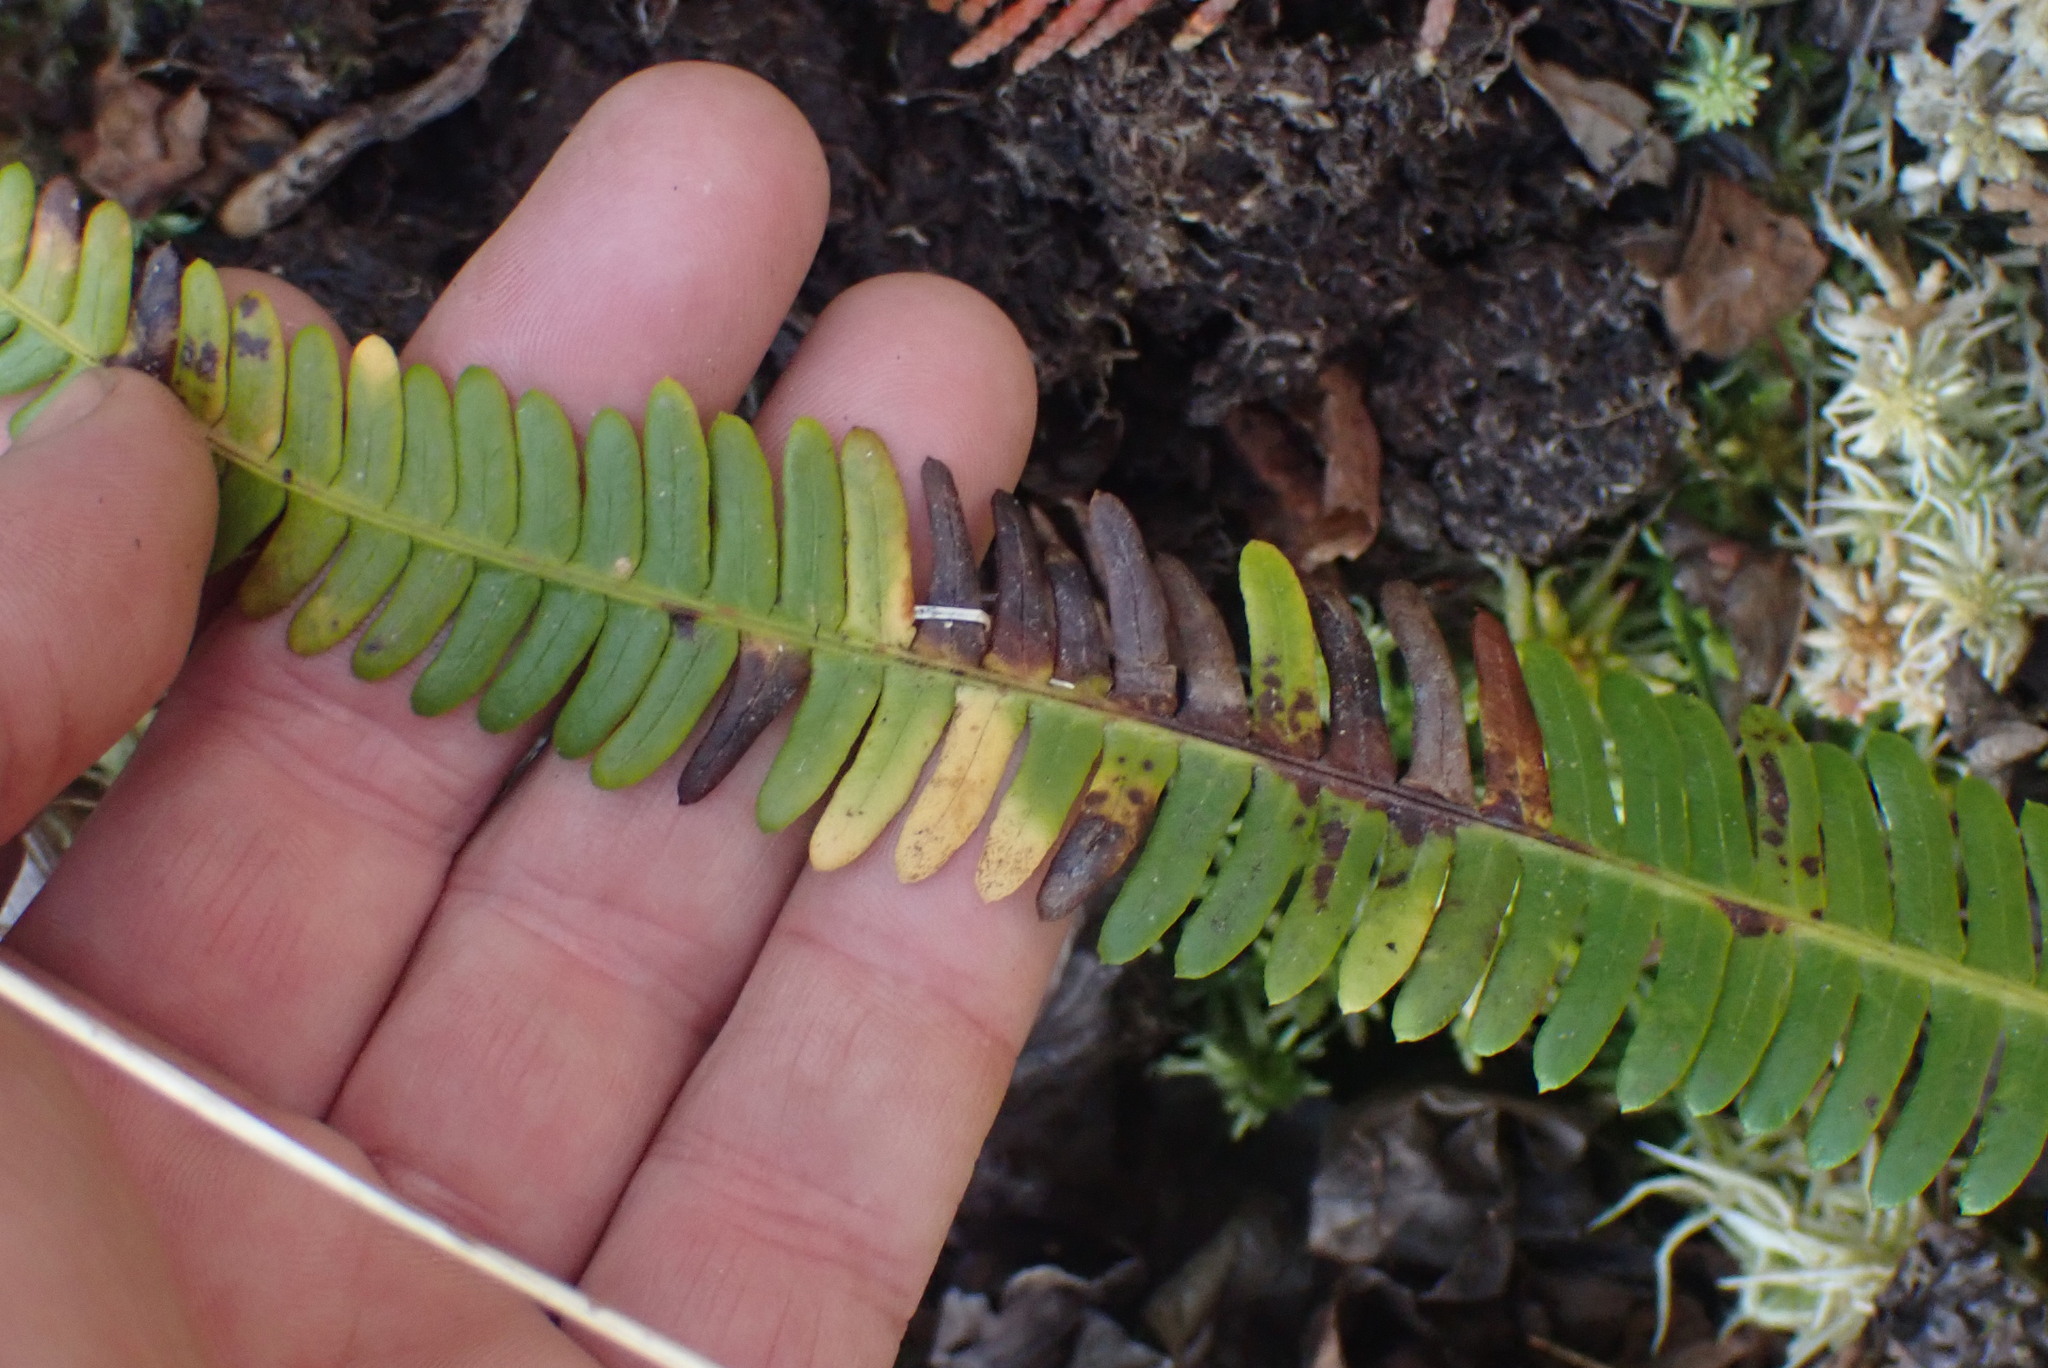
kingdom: Plantae
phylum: Tracheophyta
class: Polypodiopsida
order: Polypodiales
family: Blechnaceae
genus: Struthiopteris
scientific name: Struthiopteris spicant
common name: Deer fern
